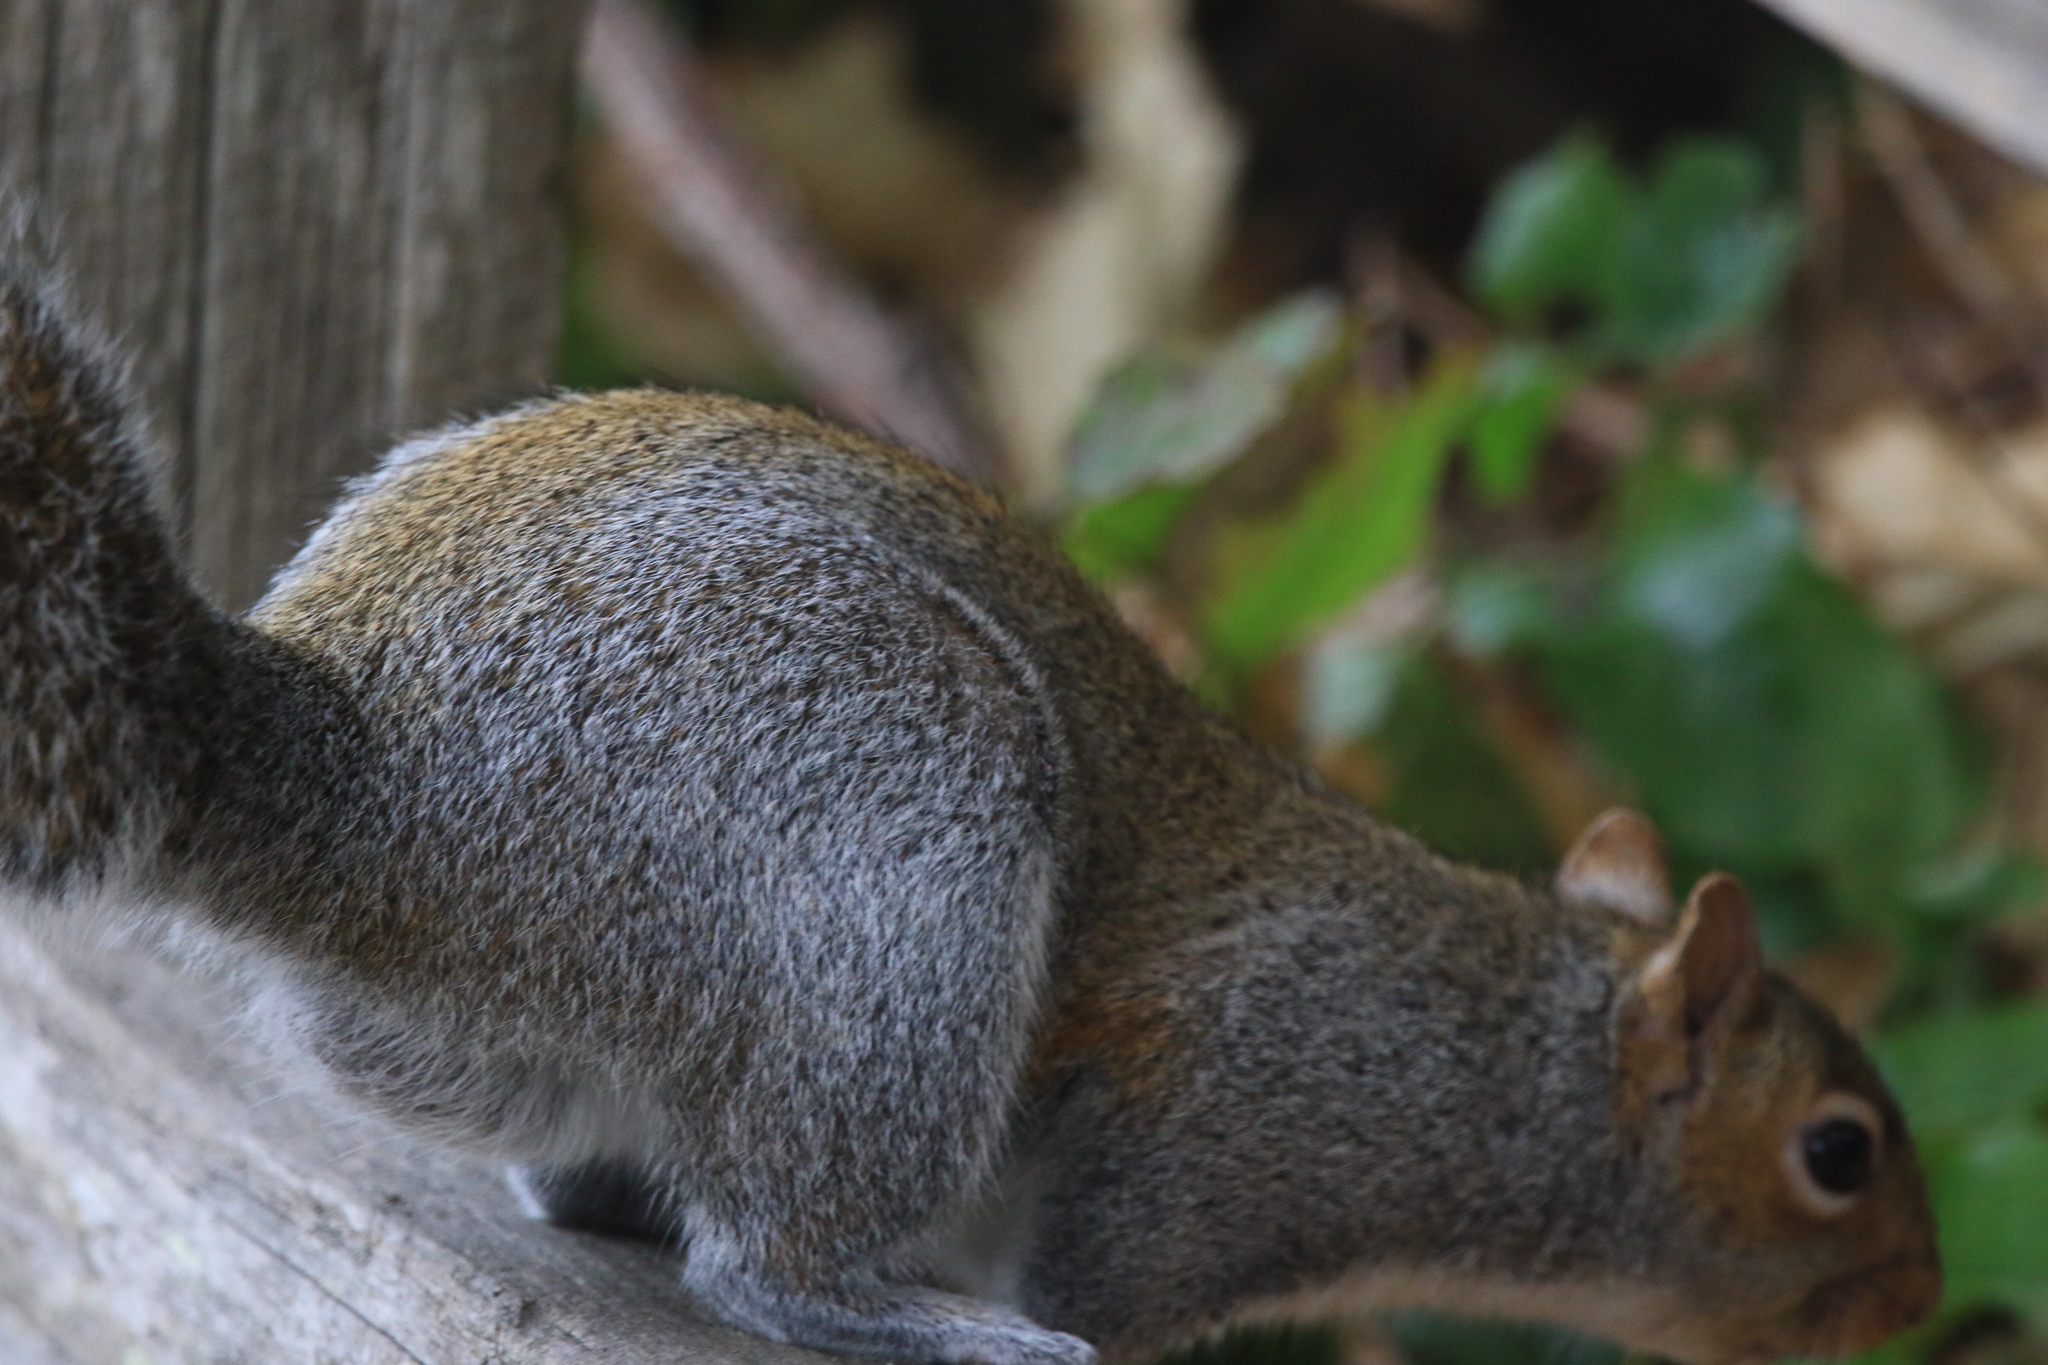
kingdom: Animalia
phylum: Chordata
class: Mammalia
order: Rodentia
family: Sciuridae
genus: Sciurus
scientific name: Sciurus carolinensis
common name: Eastern gray squirrel
